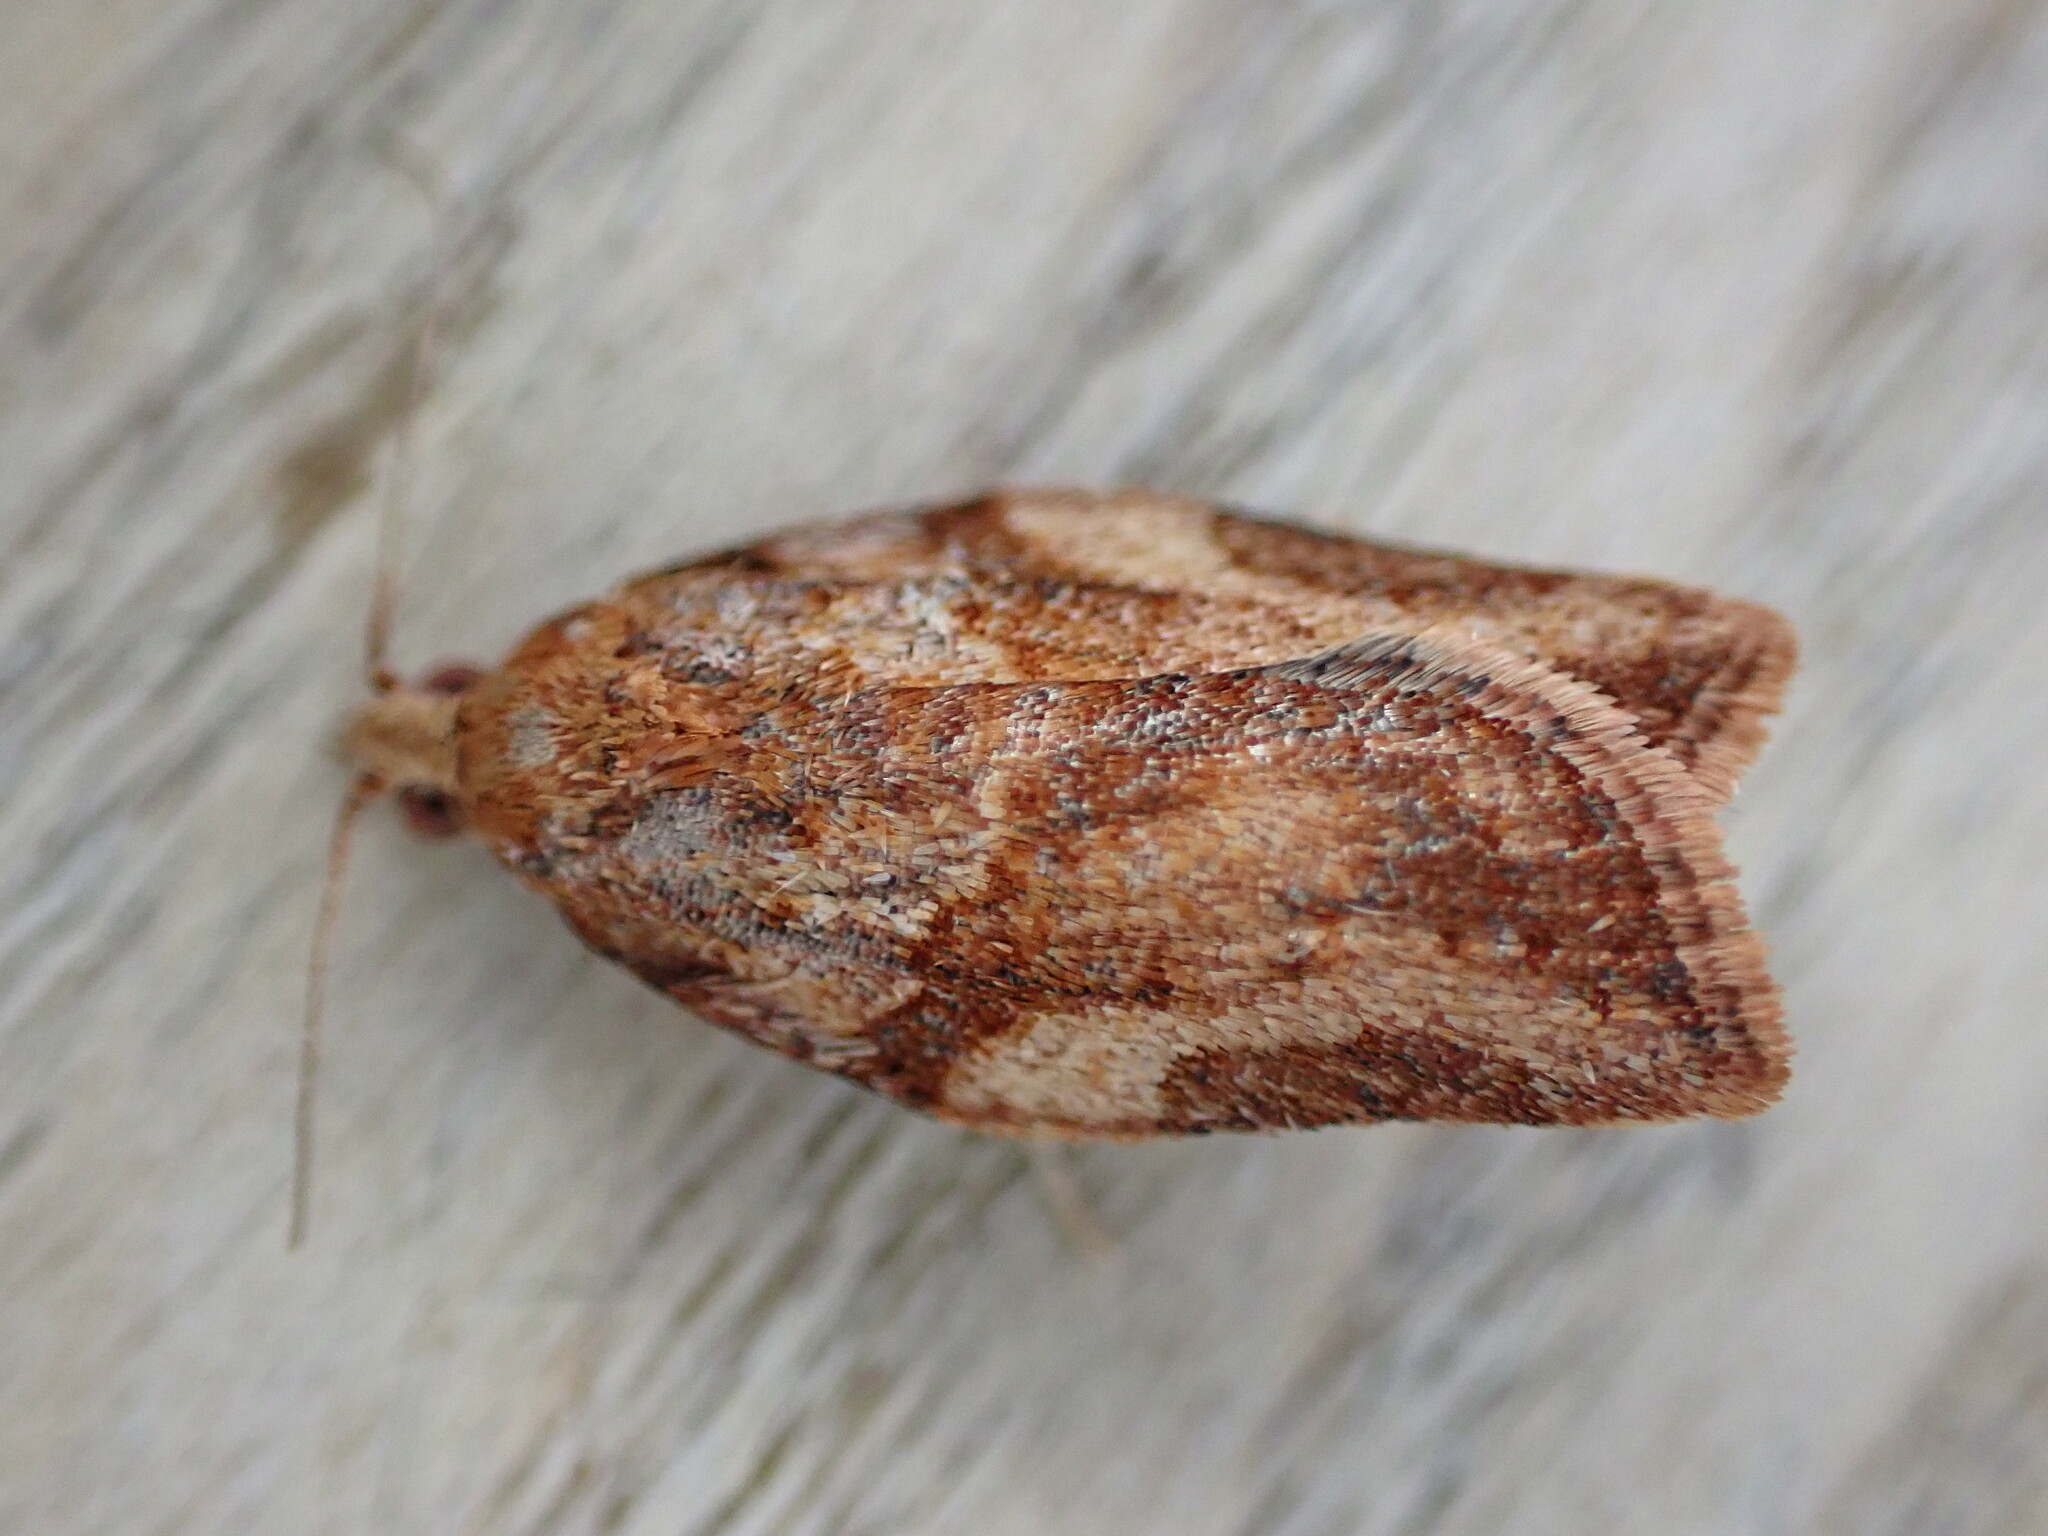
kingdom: Animalia
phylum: Arthropoda
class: Insecta
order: Lepidoptera
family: Tortricidae
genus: Epiphyas
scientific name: Epiphyas postvittana
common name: Light brown apple moth
